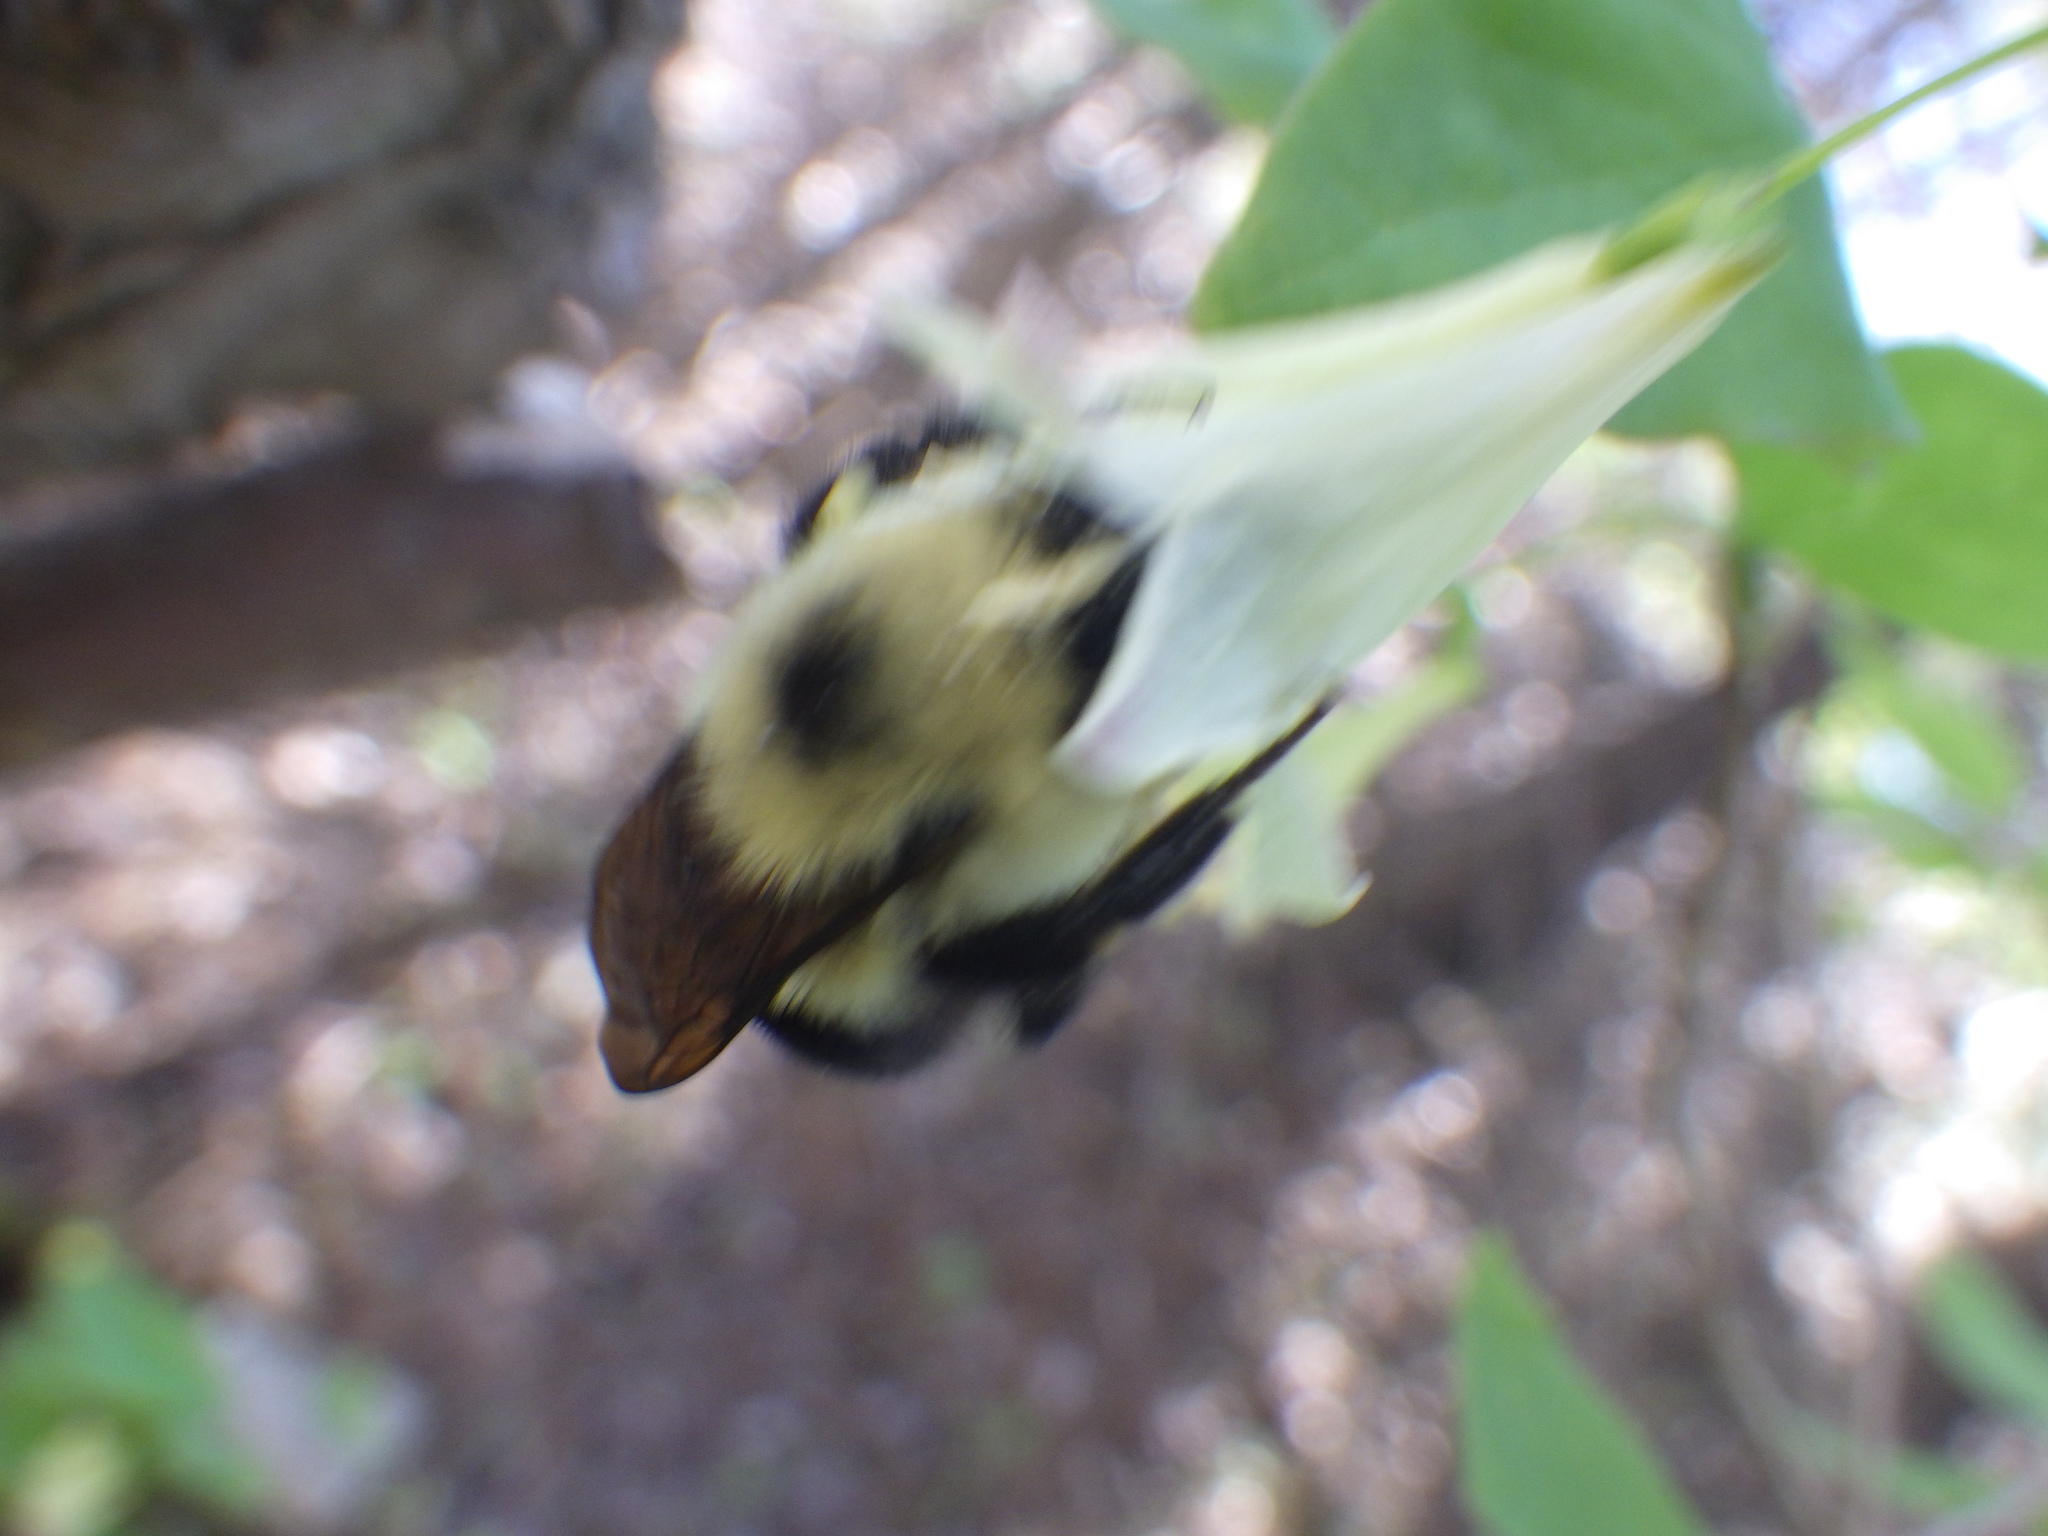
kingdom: Animalia
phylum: Arthropoda
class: Insecta
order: Hymenoptera
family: Apidae
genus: Bombus
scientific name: Bombus bimaculatus
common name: Two-spotted bumble bee
